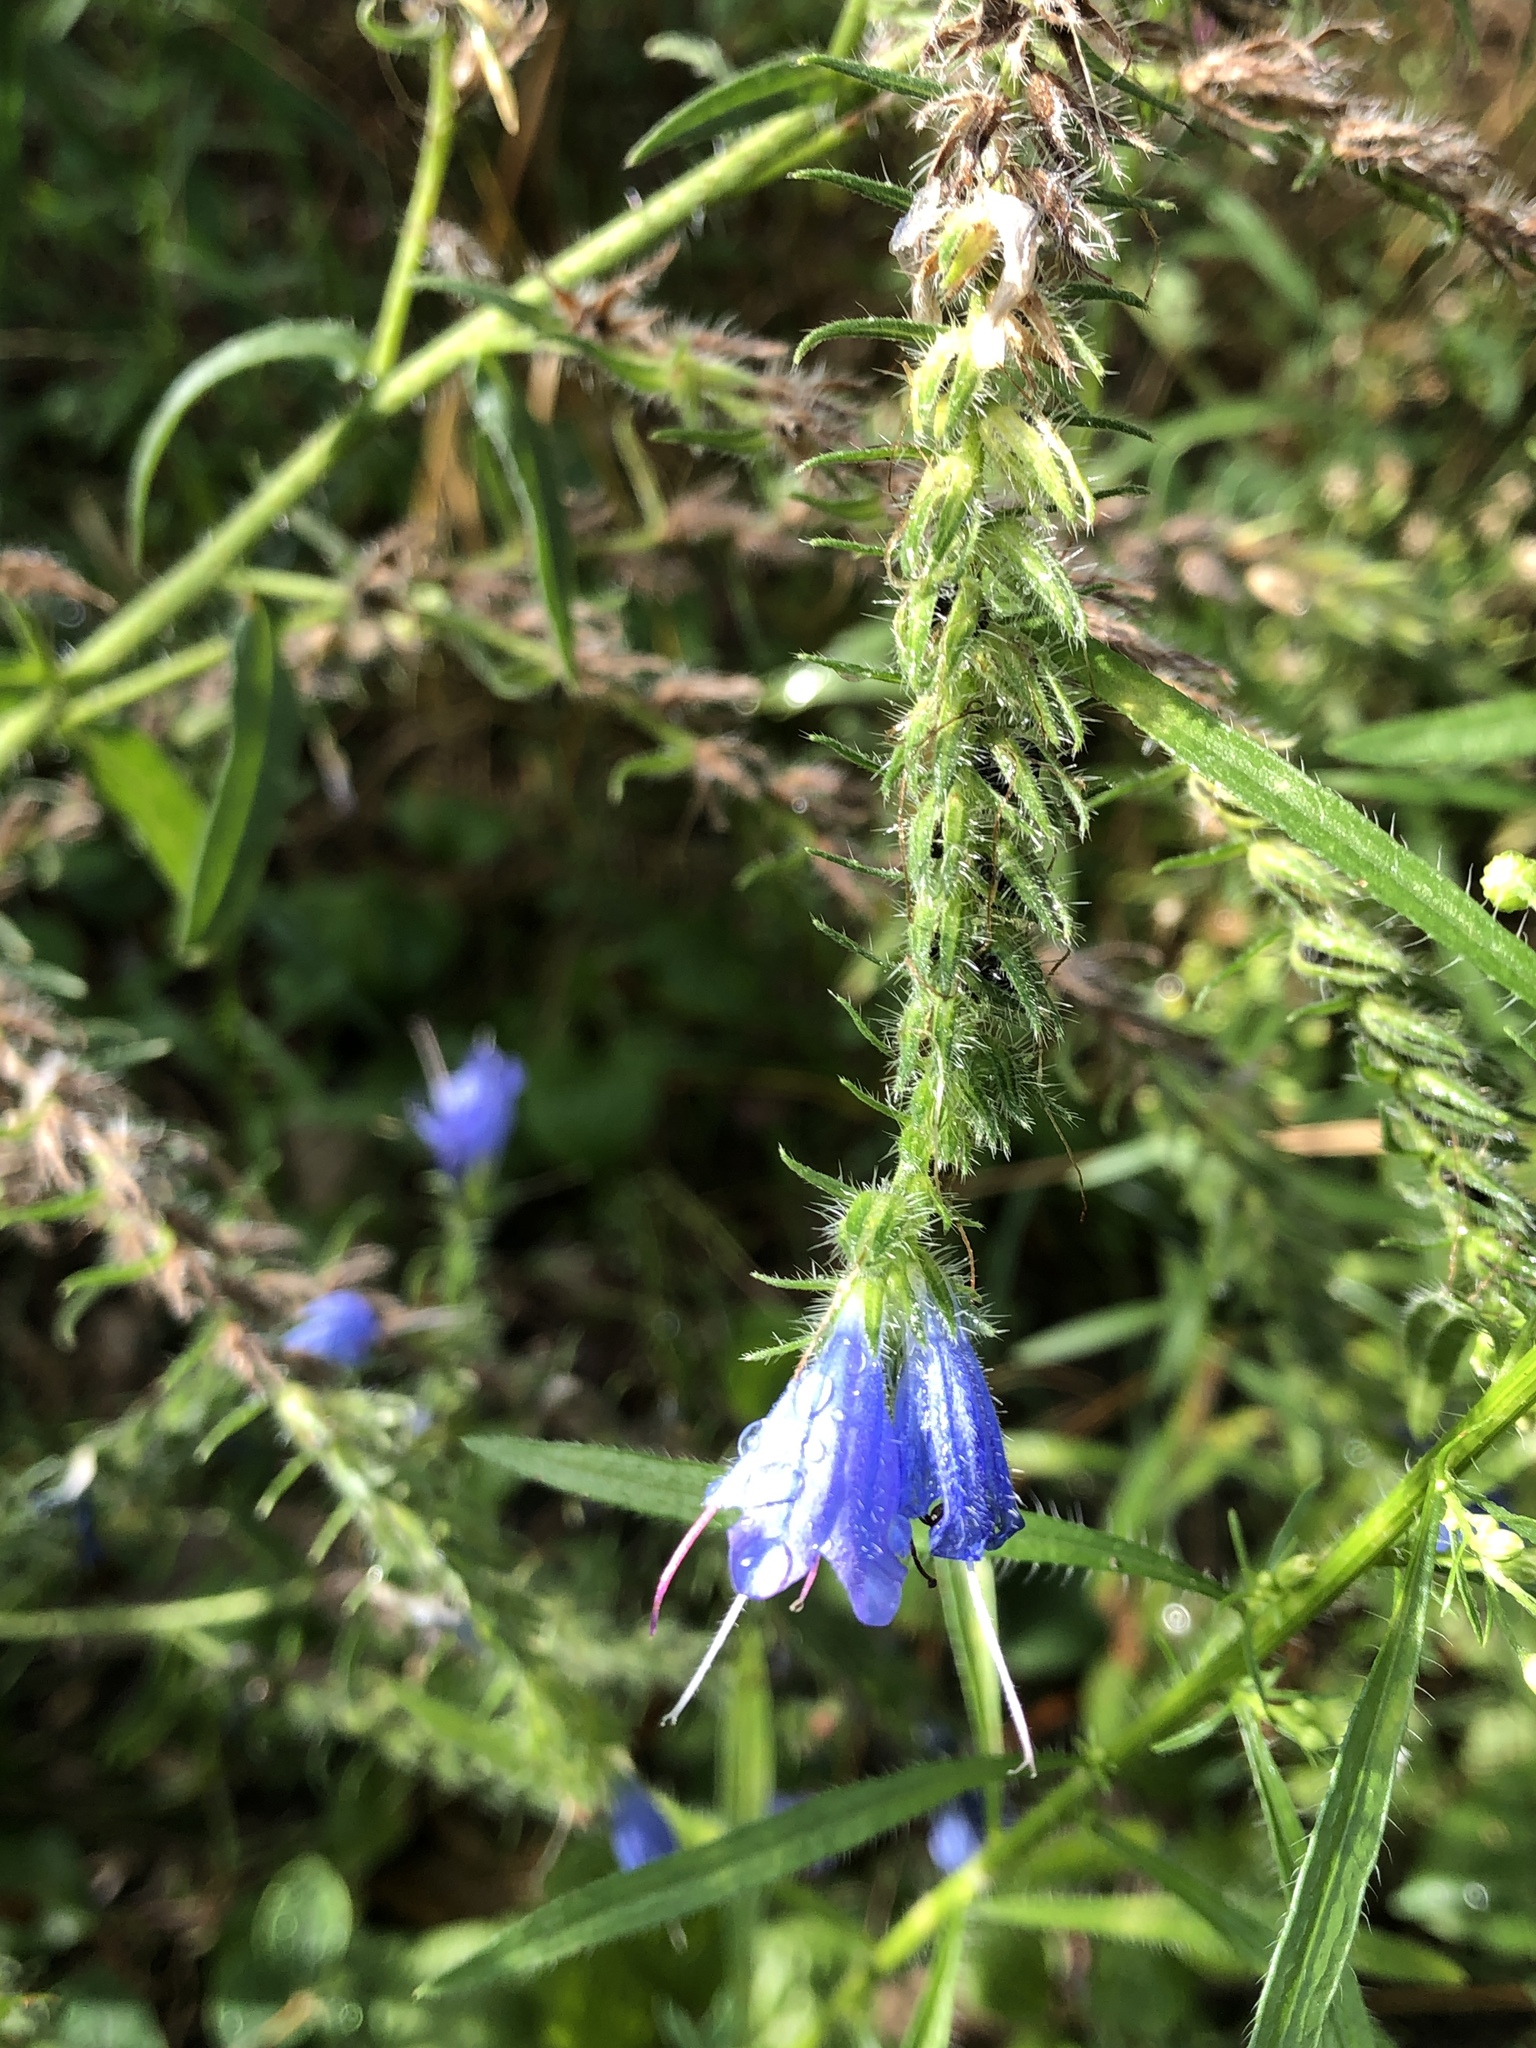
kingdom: Plantae
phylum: Tracheophyta
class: Magnoliopsida
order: Boraginales
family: Boraginaceae
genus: Echium
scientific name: Echium vulgare
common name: Common viper's bugloss
